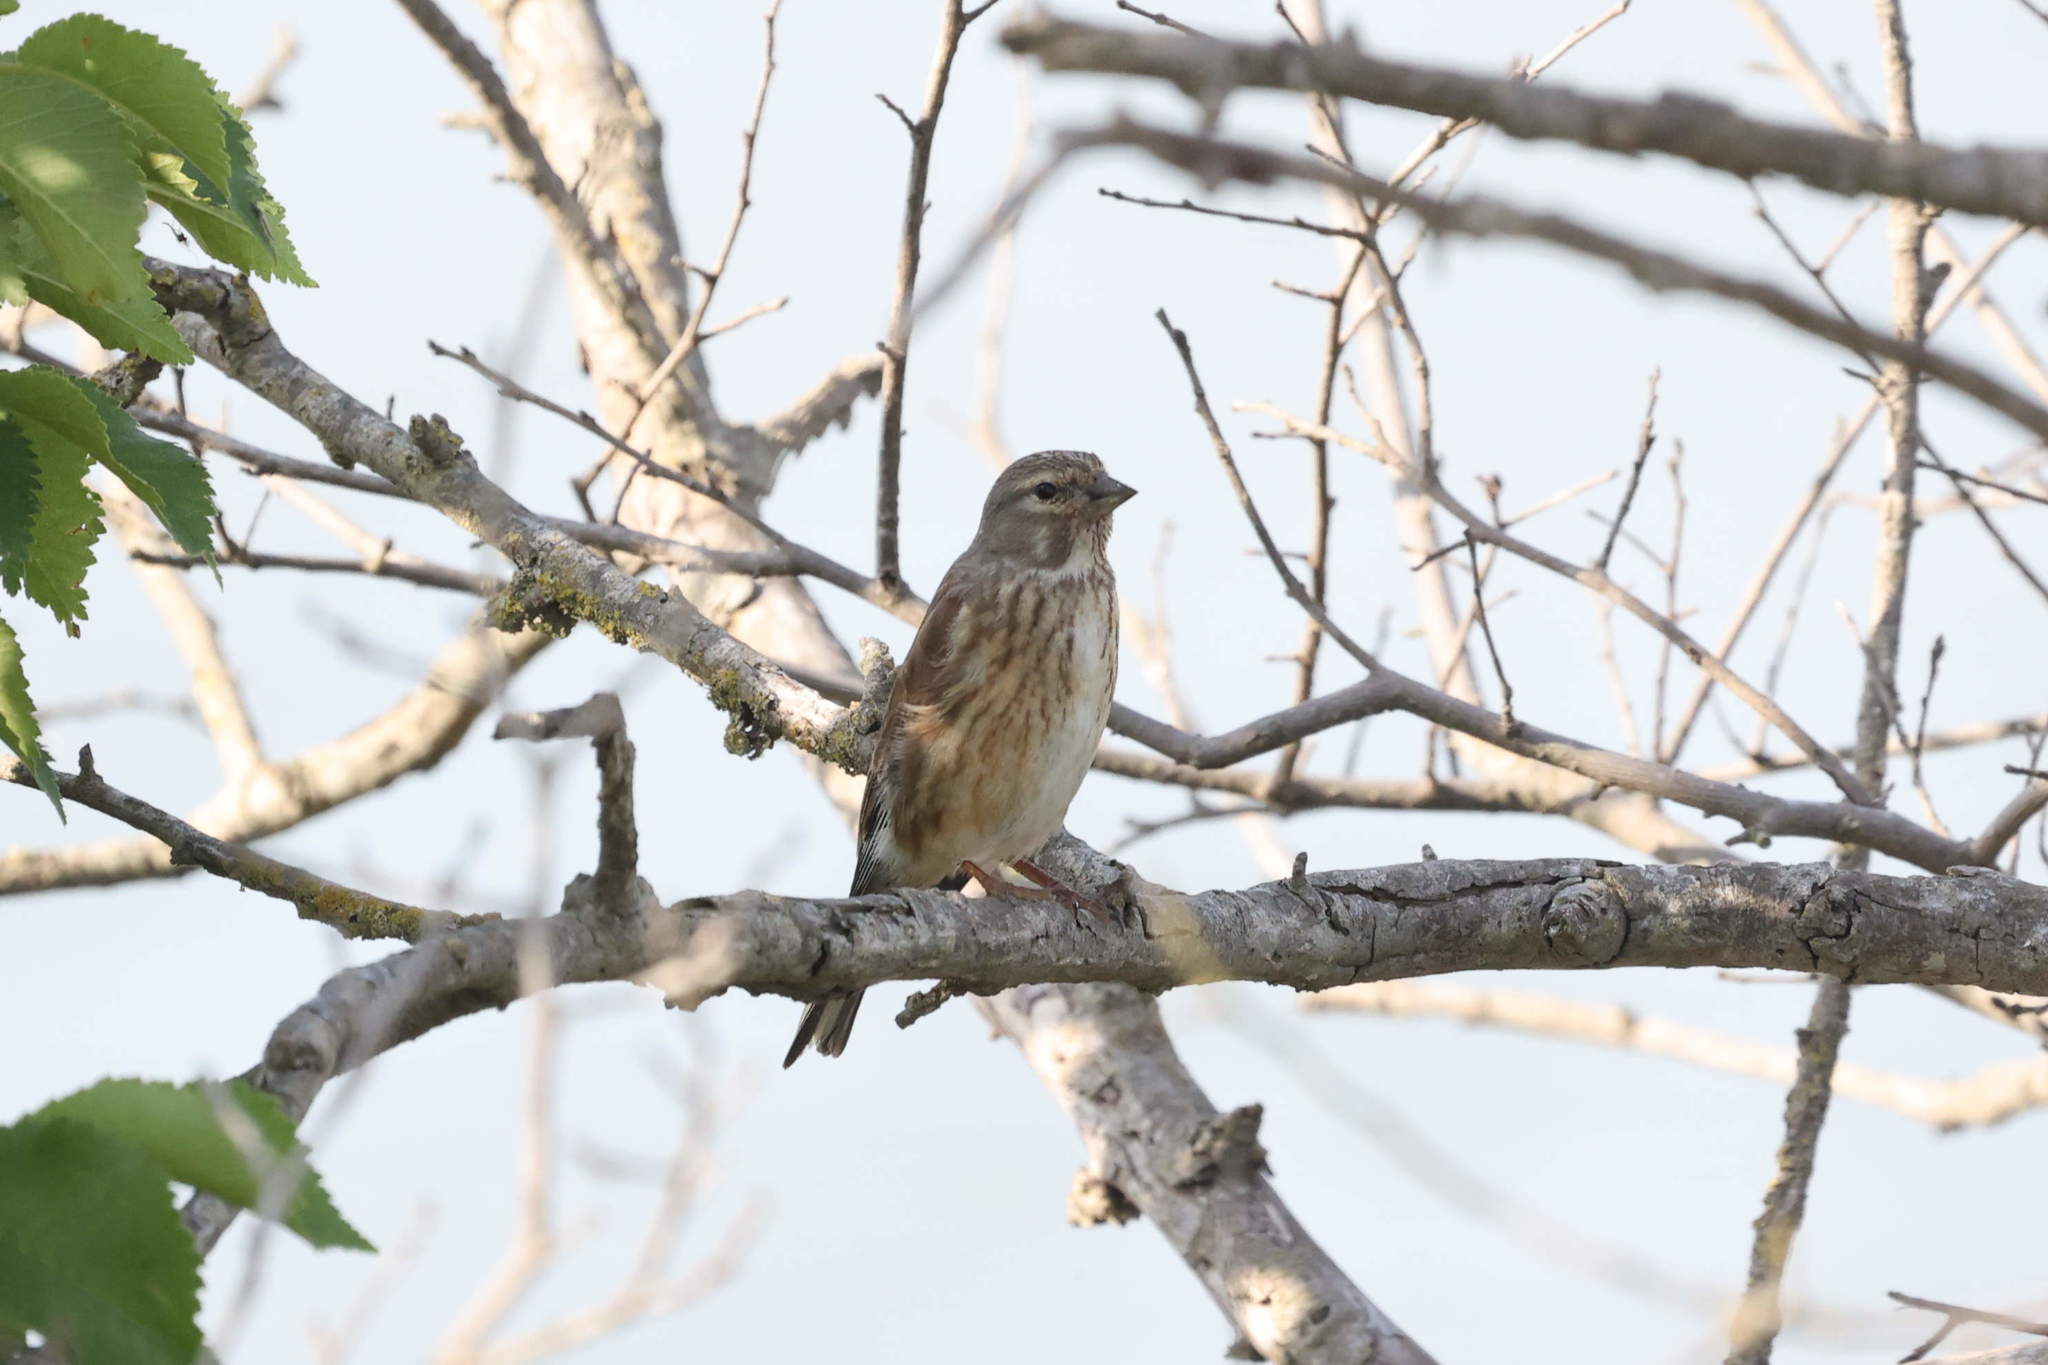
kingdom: Animalia
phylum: Chordata
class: Aves
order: Passeriformes
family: Fringillidae
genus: Linaria
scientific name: Linaria cannabina
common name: Common linnet
